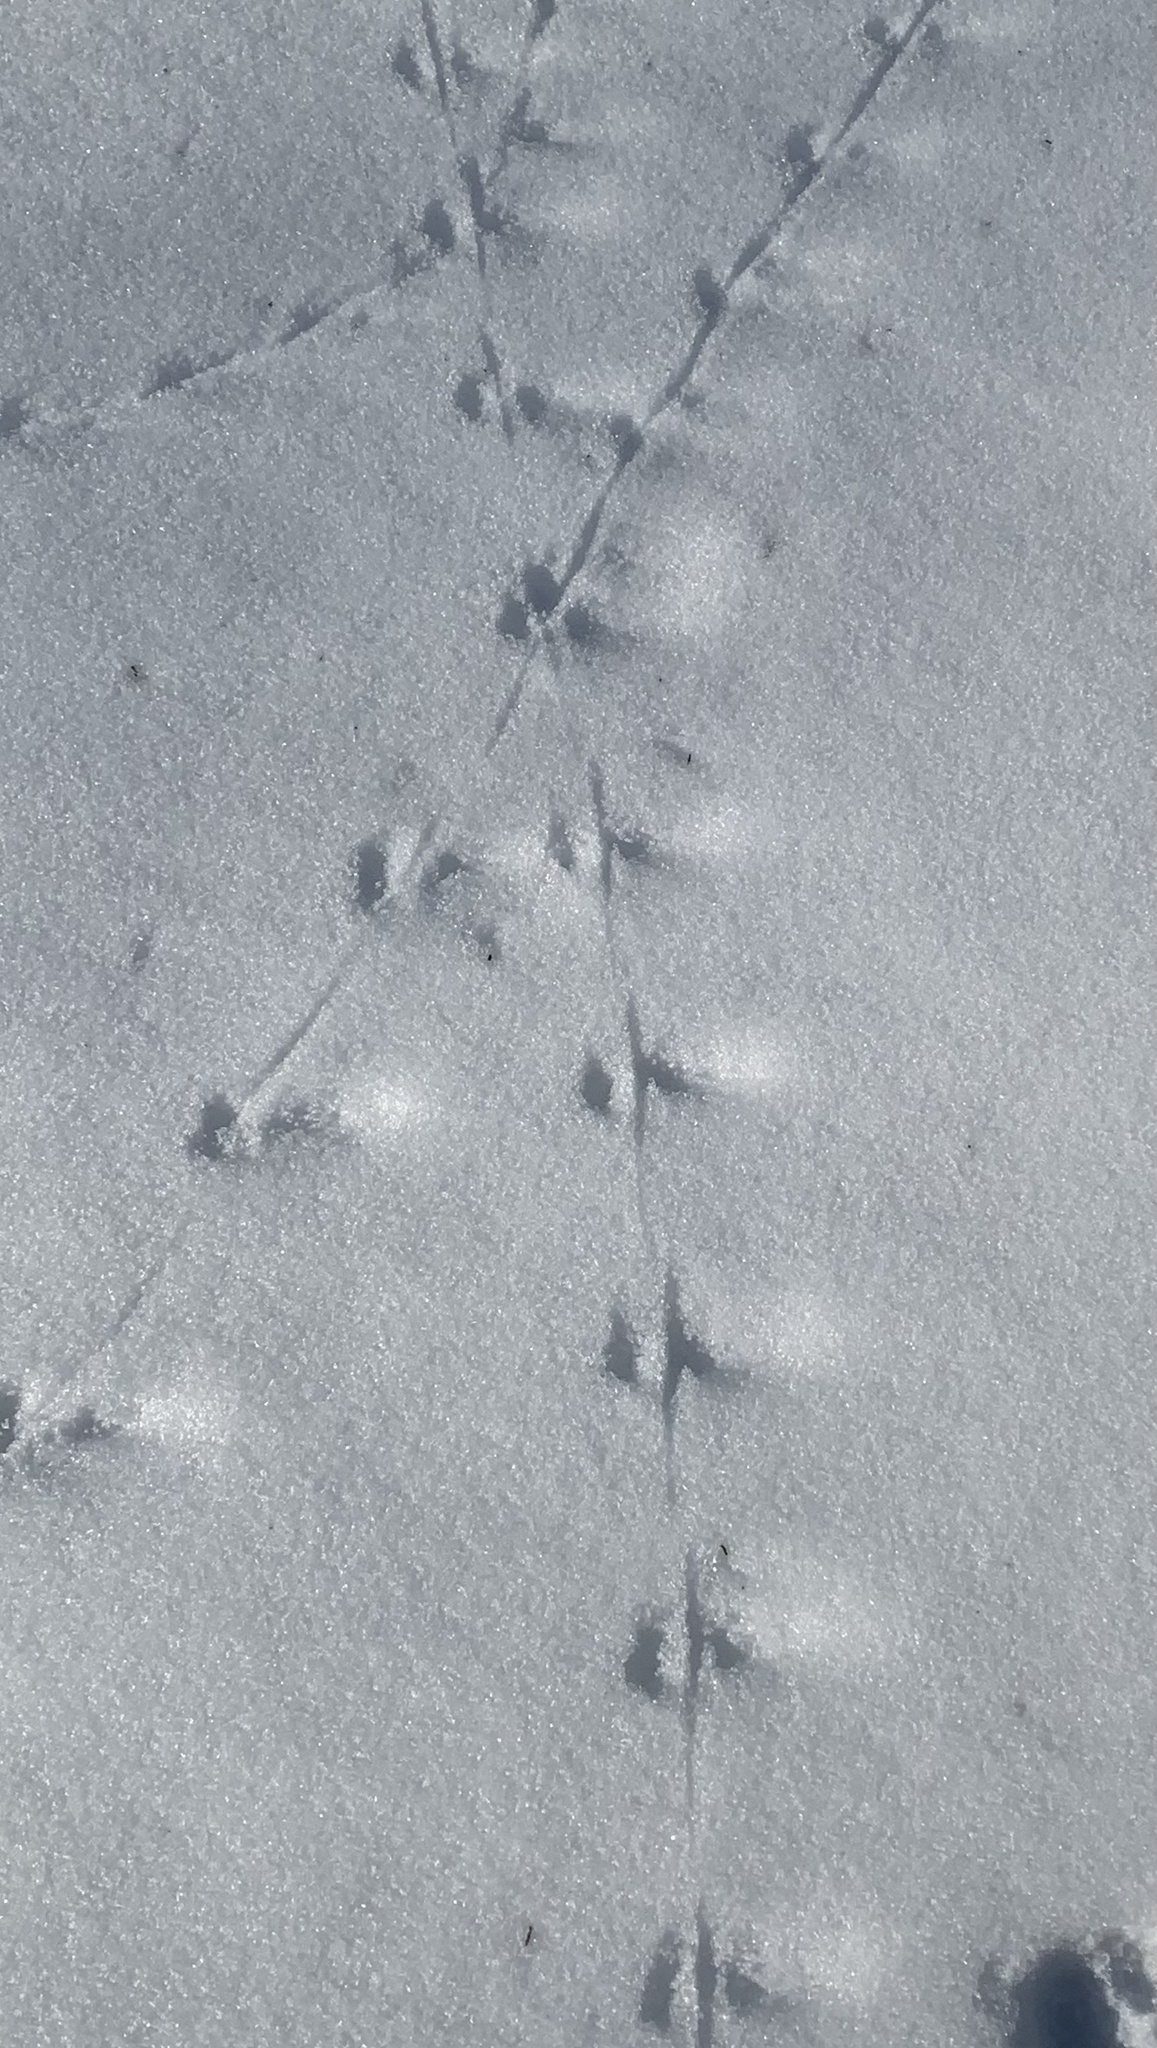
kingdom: Animalia
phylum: Chordata
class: Mammalia
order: Carnivora
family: Mustelidae
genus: Mustela
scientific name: Mustela erminea
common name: Stoat
